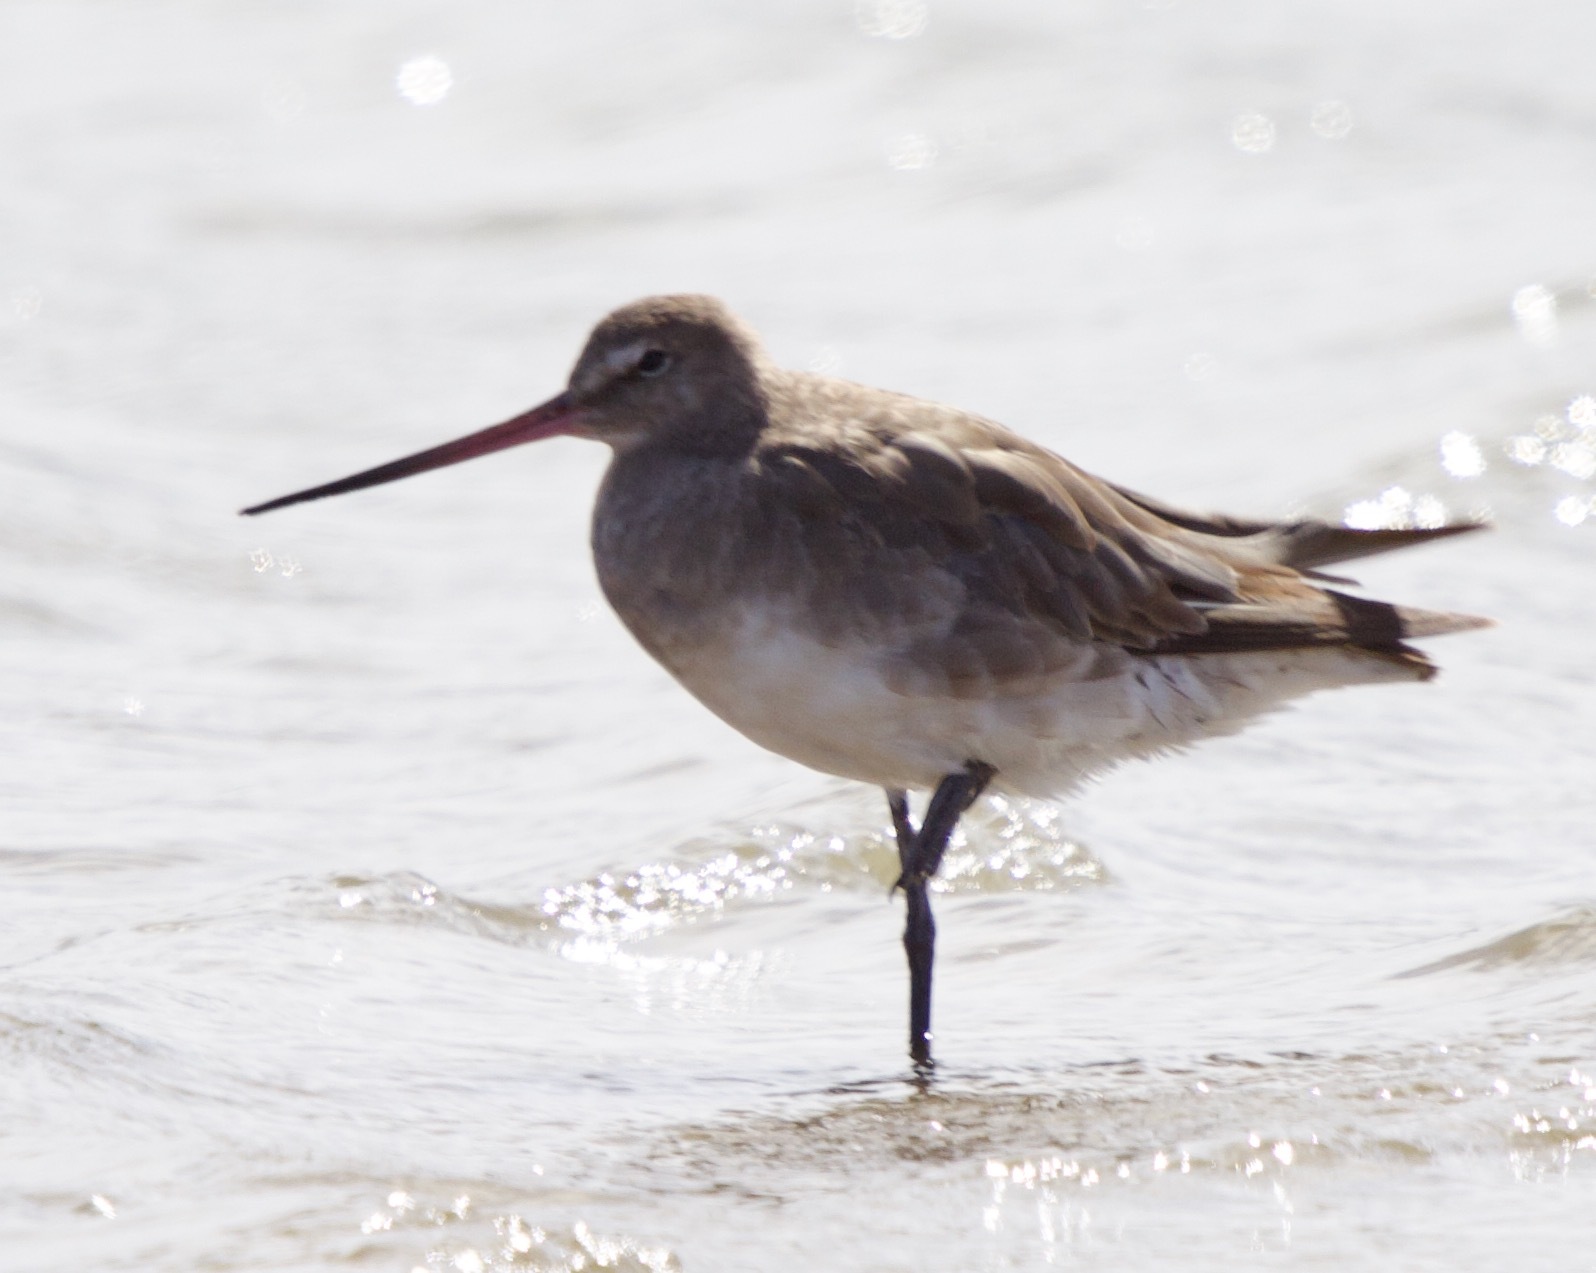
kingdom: Animalia
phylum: Chordata
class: Aves
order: Charadriiformes
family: Scolopacidae
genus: Limosa
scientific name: Limosa haemastica
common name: Hudsonian godwit
